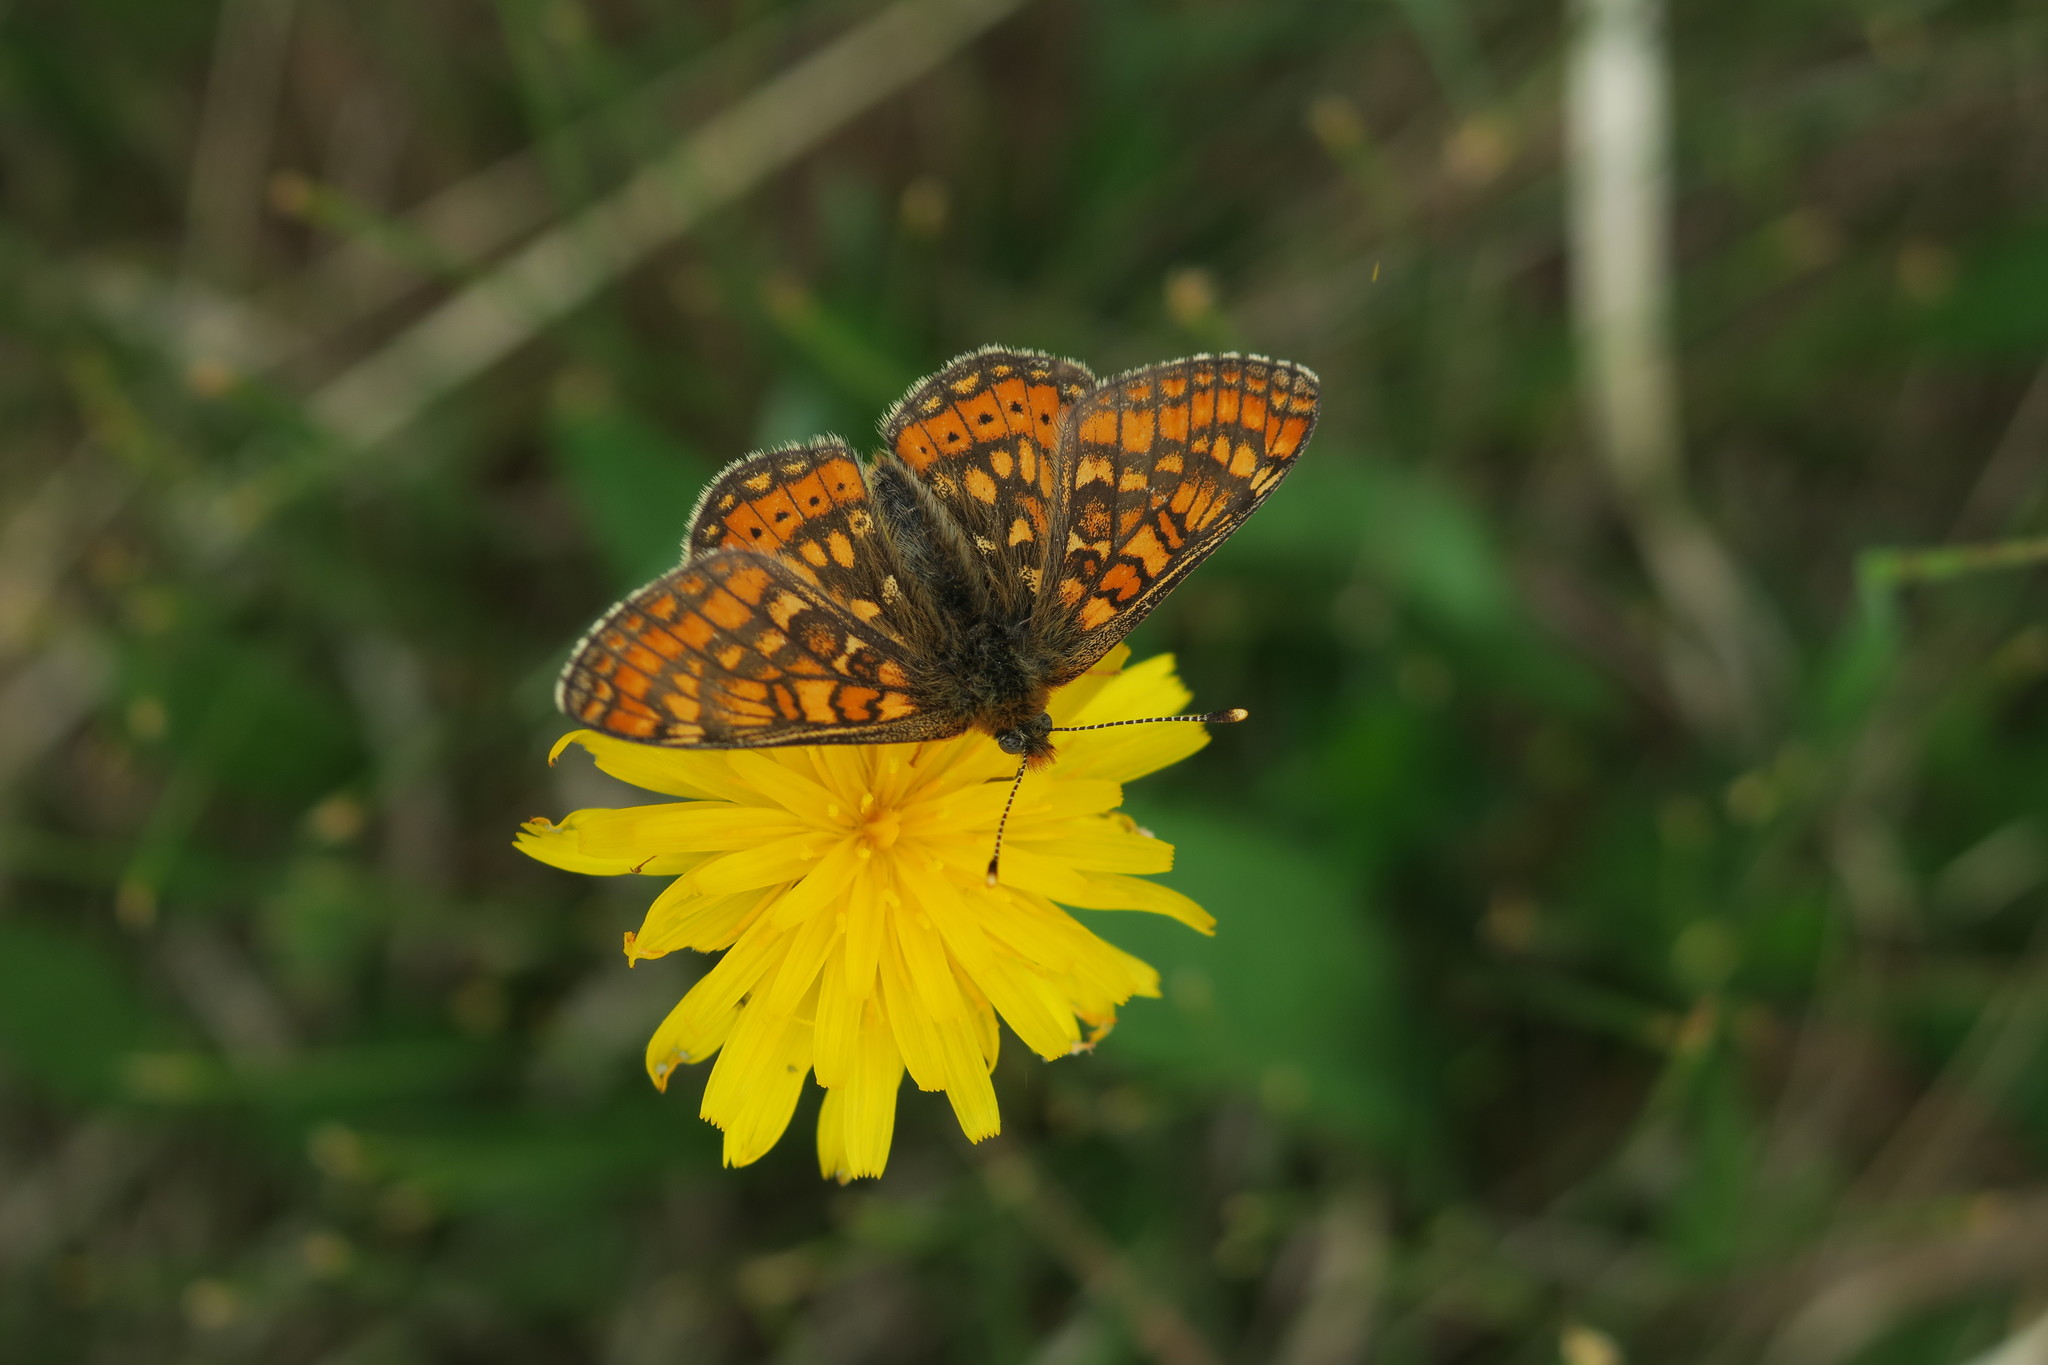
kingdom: Animalia
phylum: Arthropoda
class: Insecta
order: Lepidoptera
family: Nymphalidae
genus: Euphydryas
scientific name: Euphydryas aurinia
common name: Marsh fritillary
